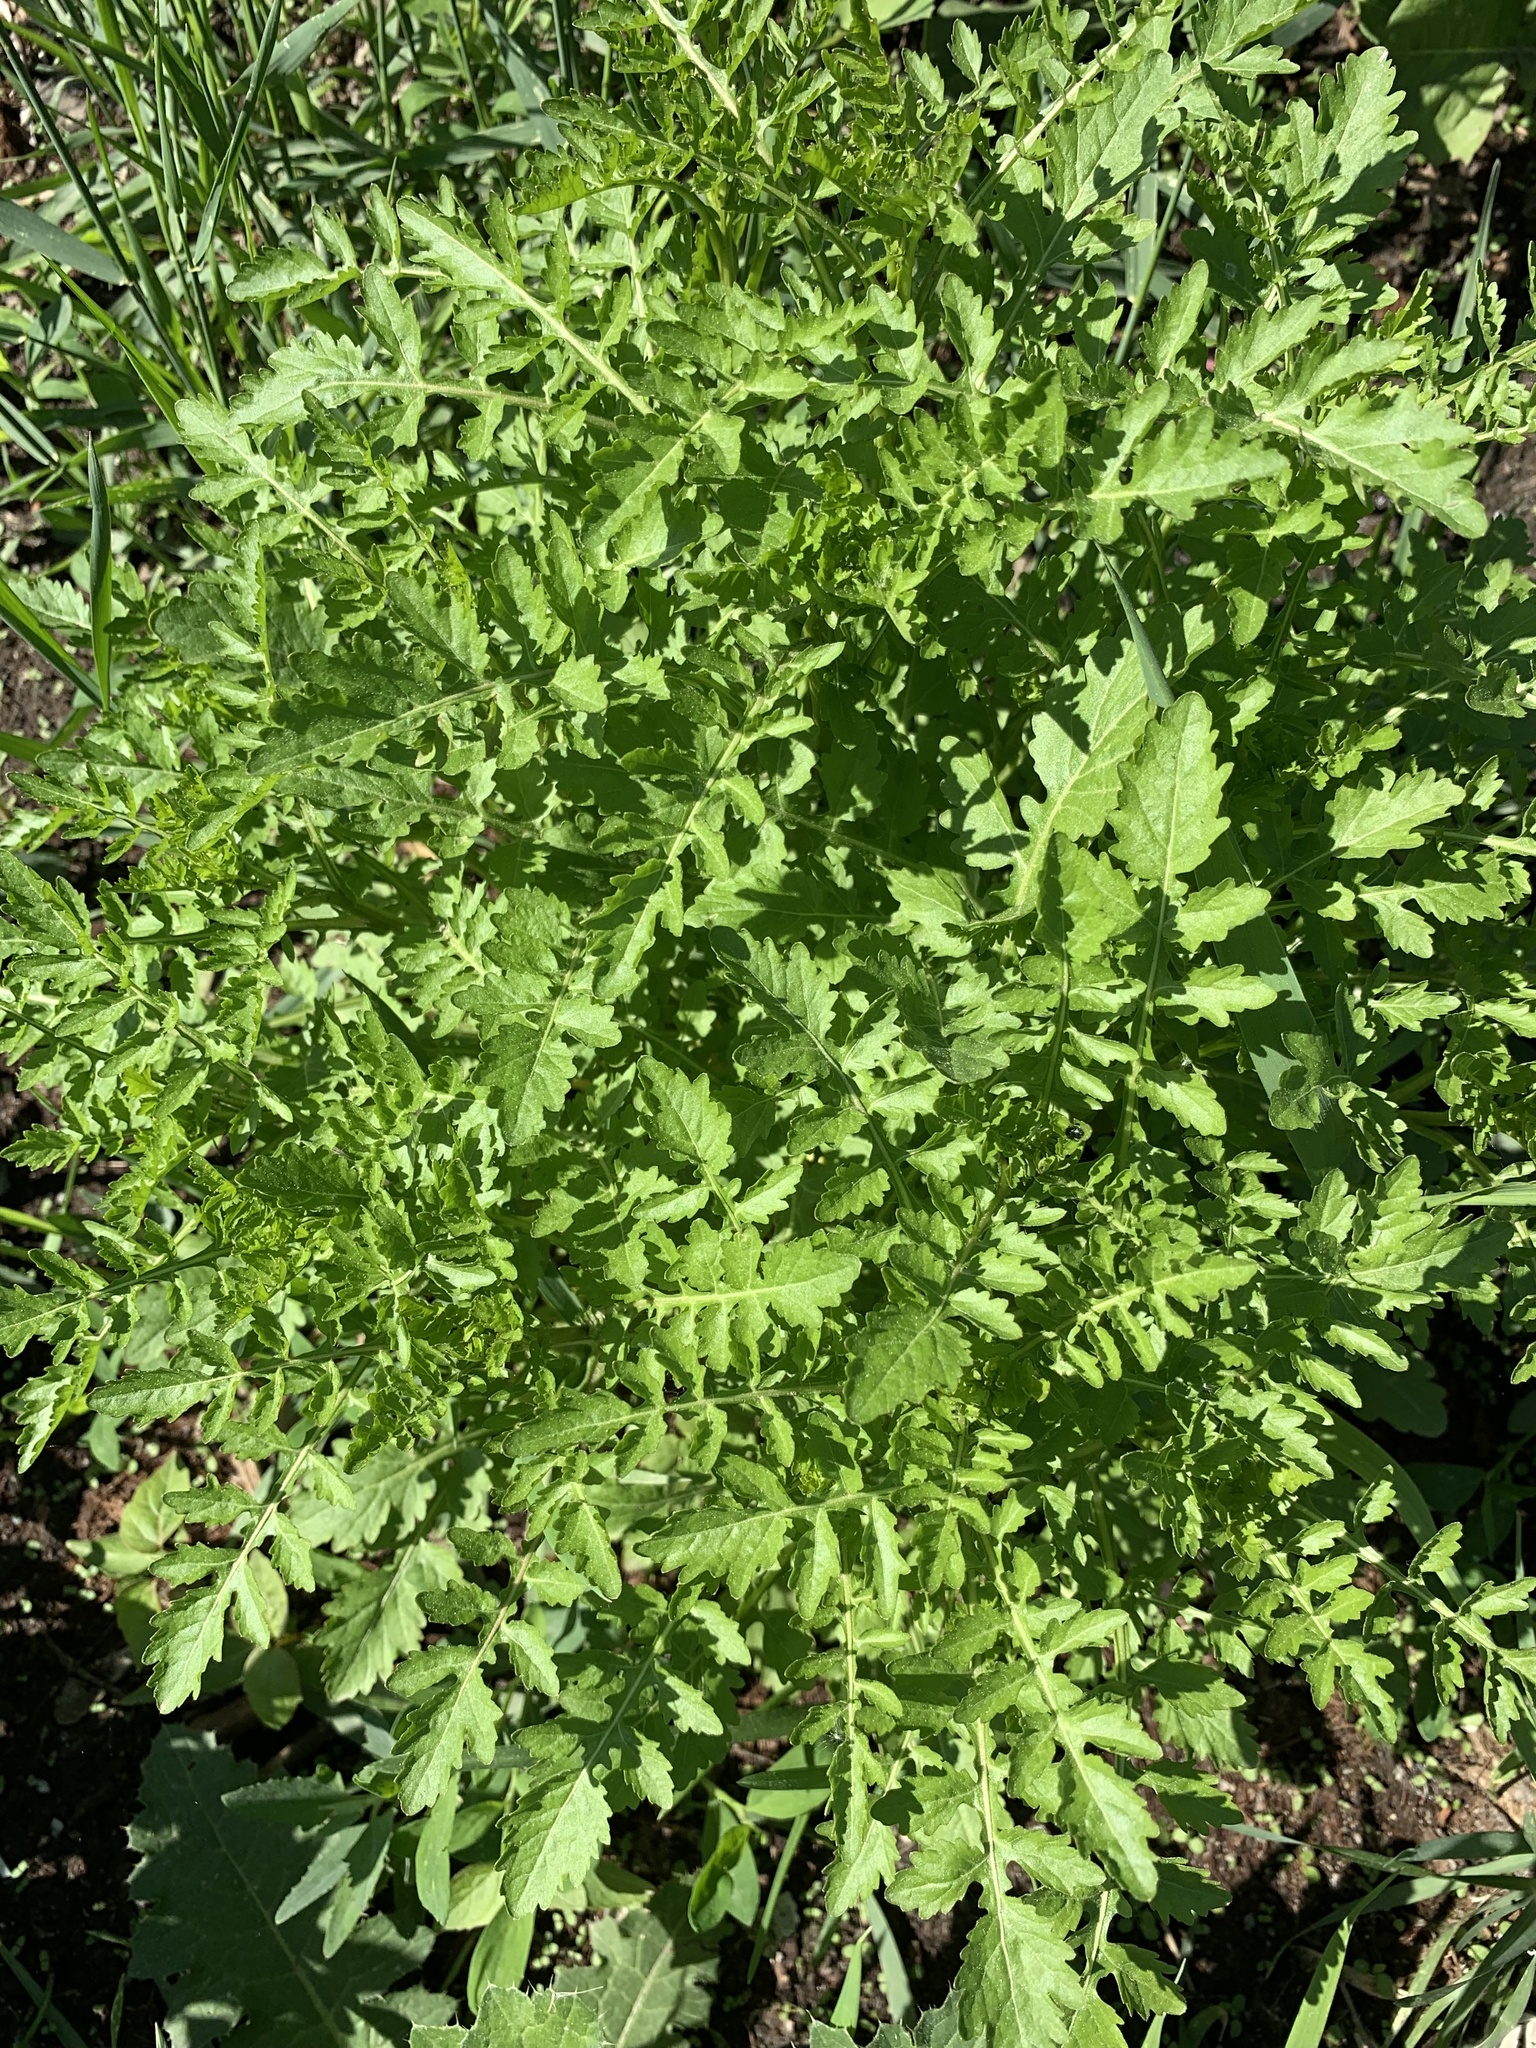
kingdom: Plantae
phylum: Tracheophyta
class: Magnoliopsida
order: Brassicales
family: Brassicaceae
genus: Rorippa
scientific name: Rorippa palustris
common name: Marsh yellow-cress
